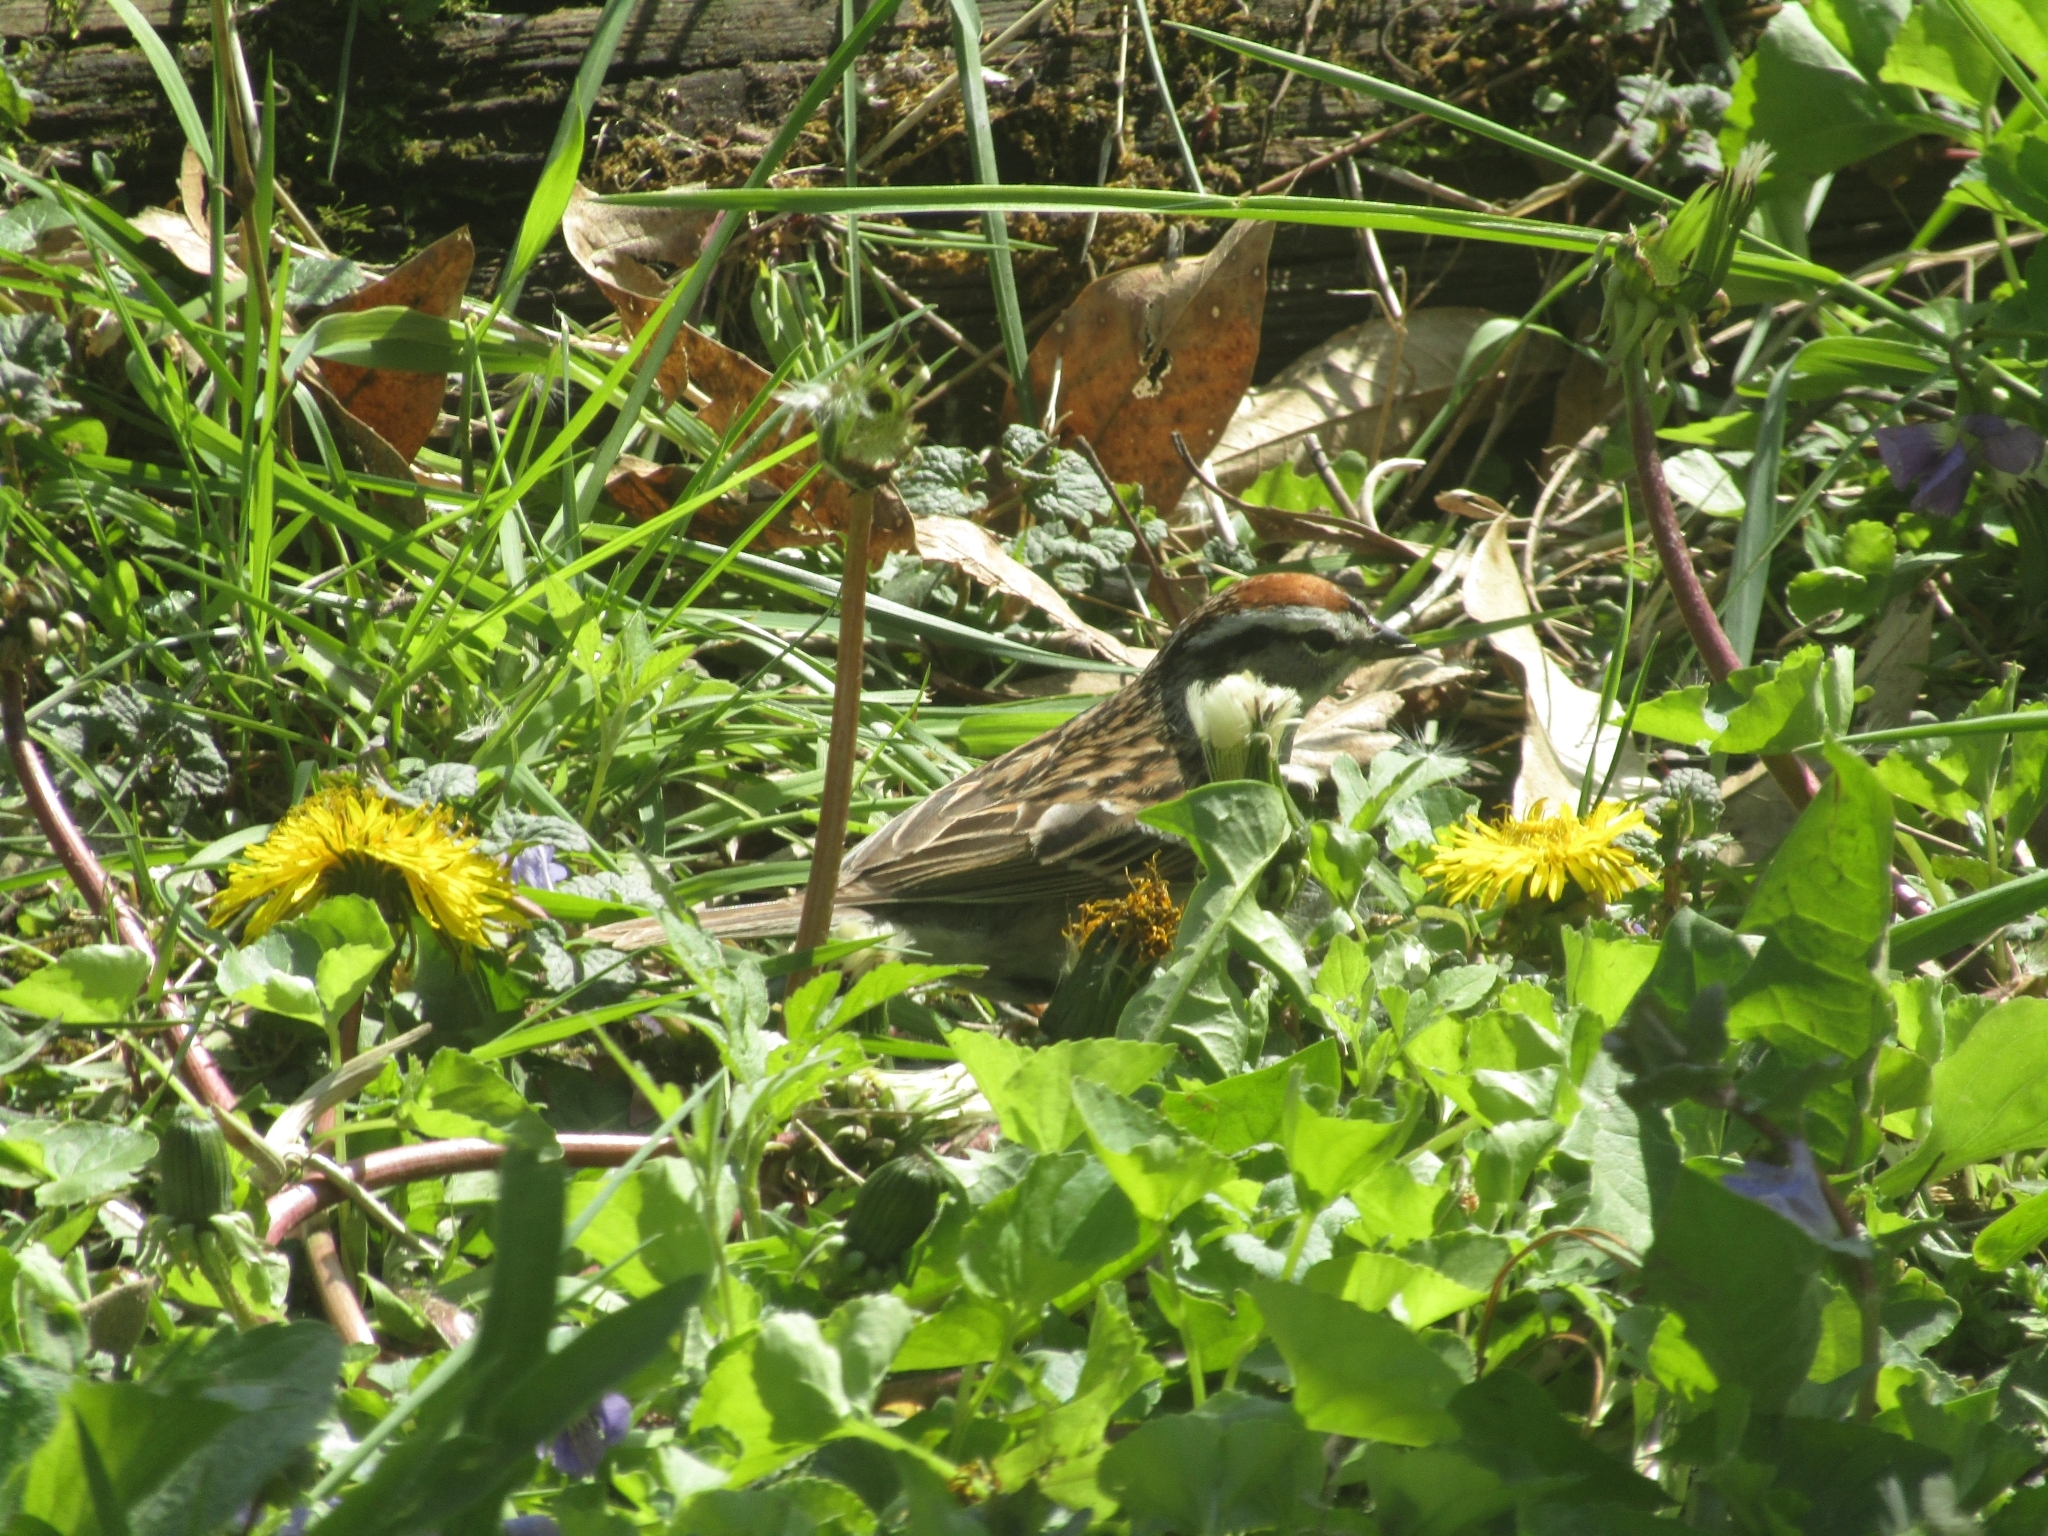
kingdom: Animalia
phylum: Chordata
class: Aves
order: Passeriformes
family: Passerellidae
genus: Spizella
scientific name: Spizella passerina
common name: Chipping sparrow
